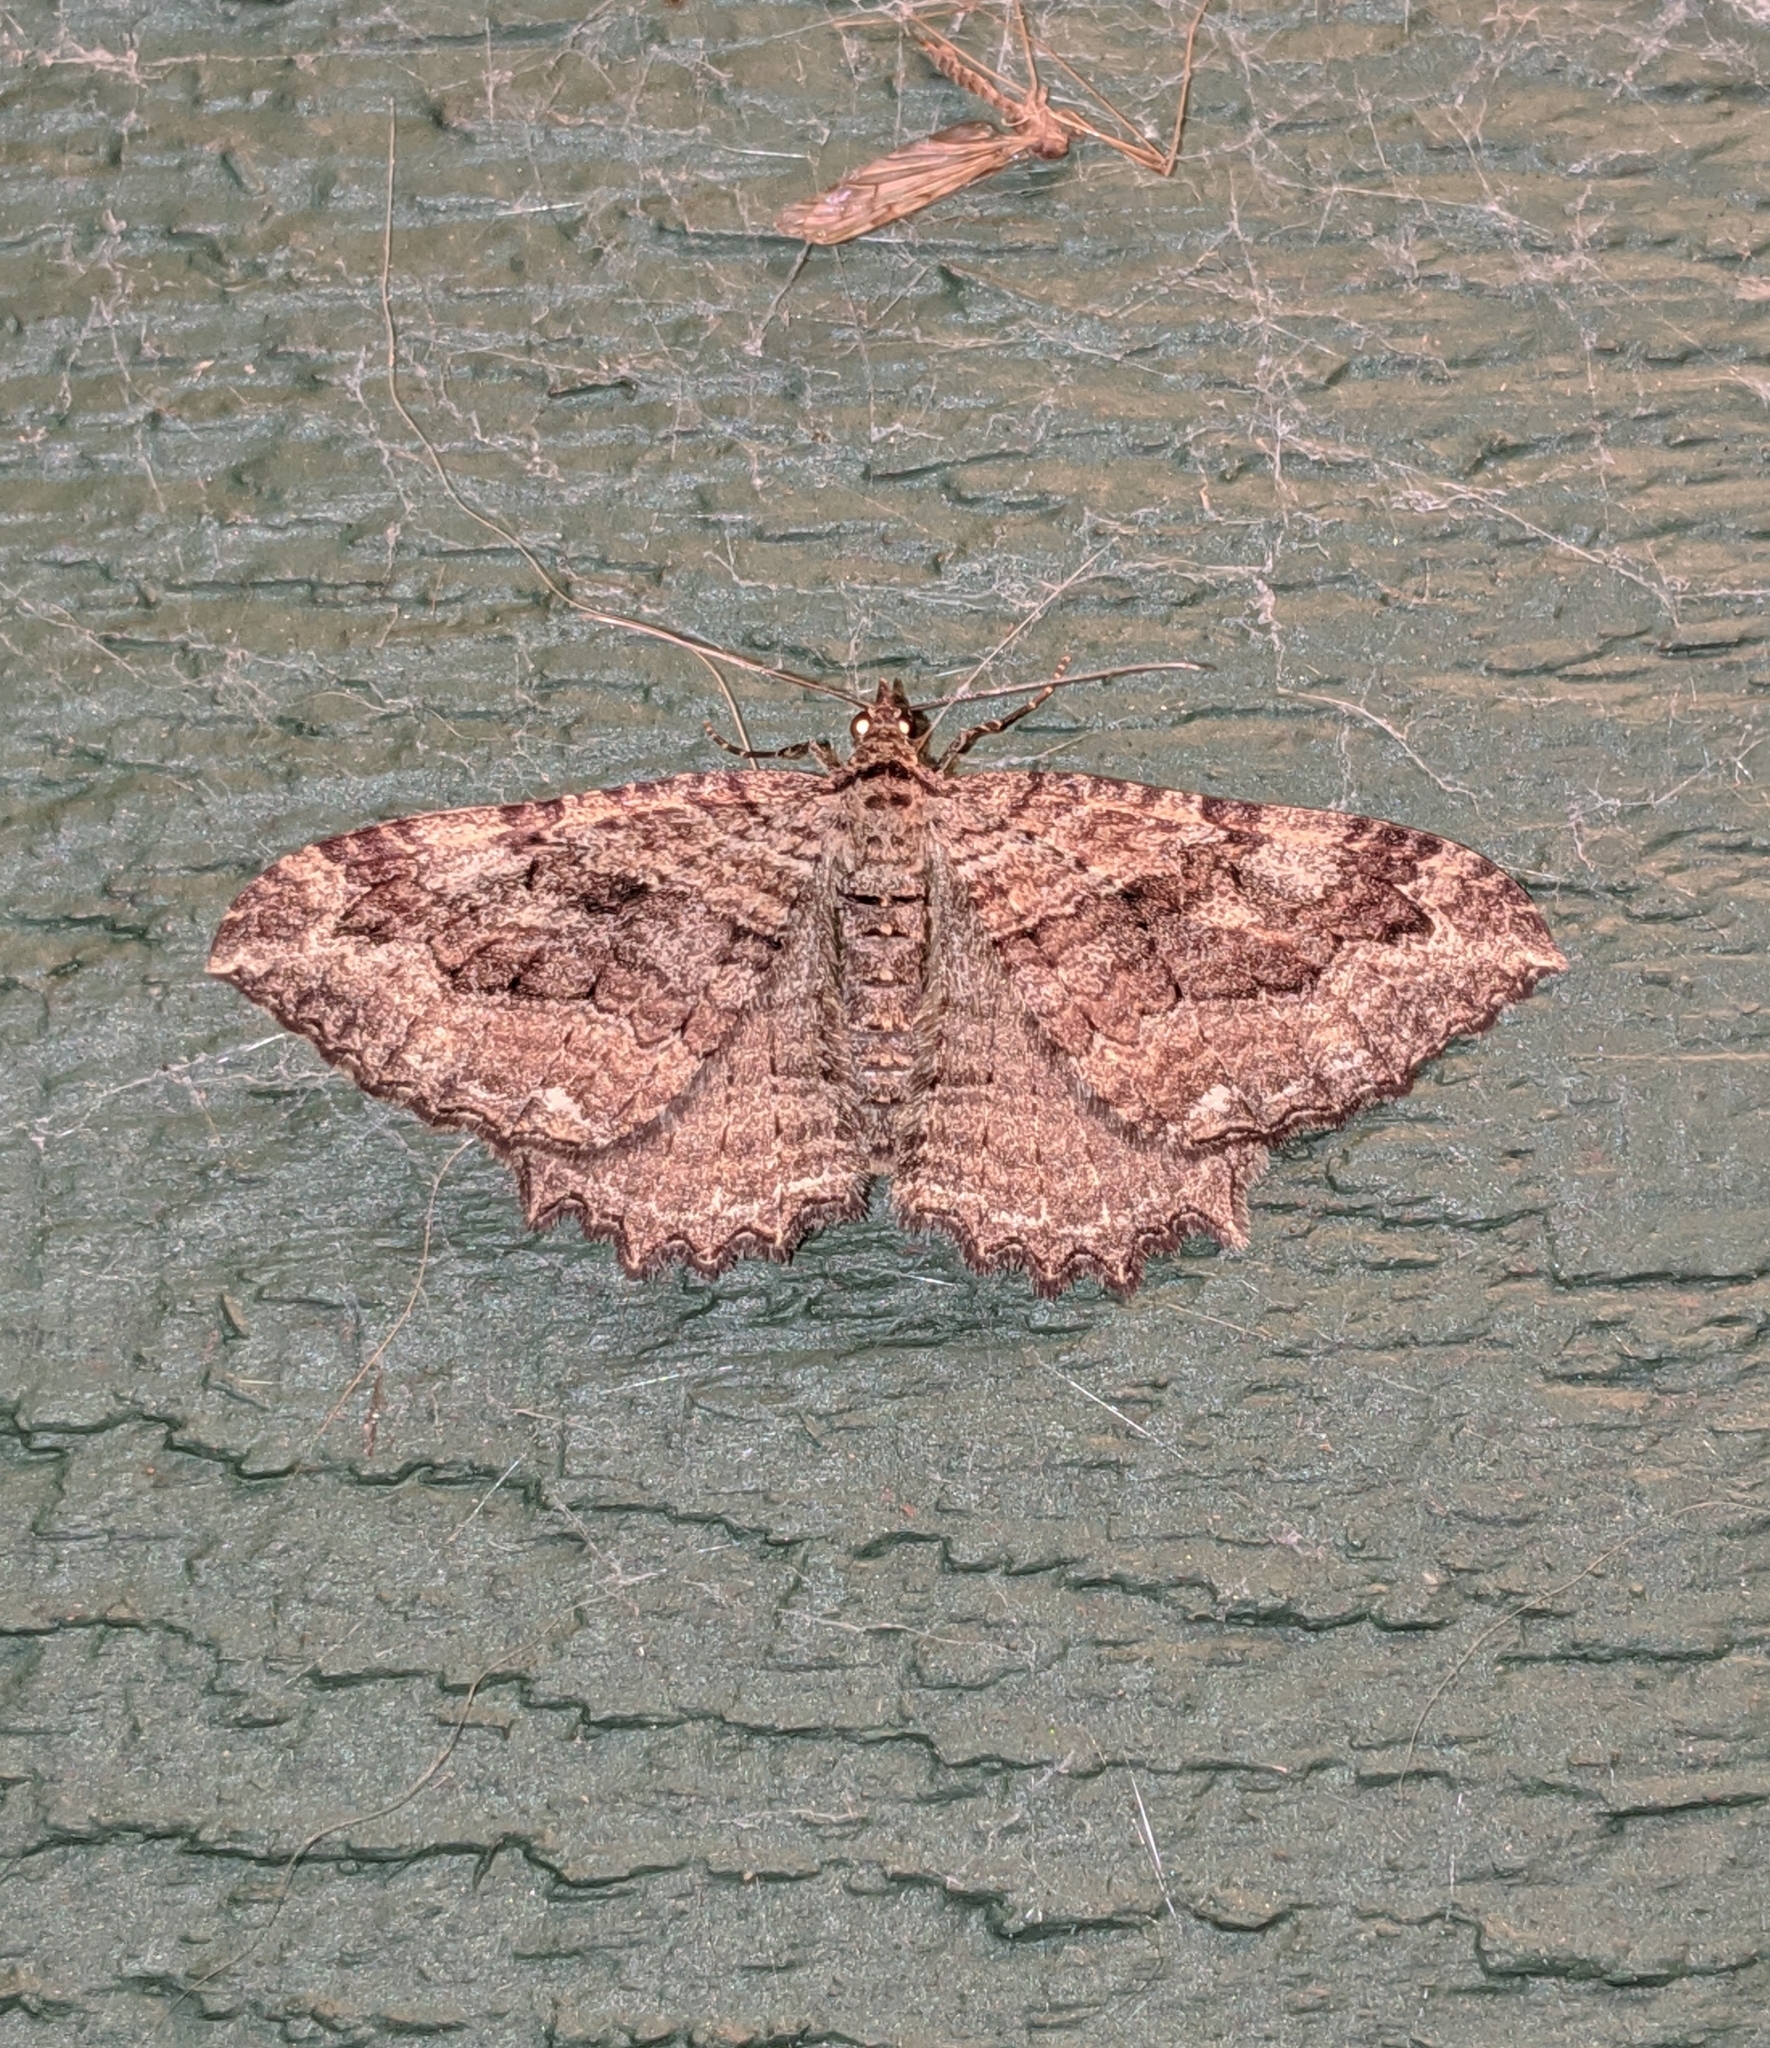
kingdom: Animalia
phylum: Arthropoda
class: Insecta
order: Lepidoptera
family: Geometridae
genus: Rheumaptera
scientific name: Rheumaptera
